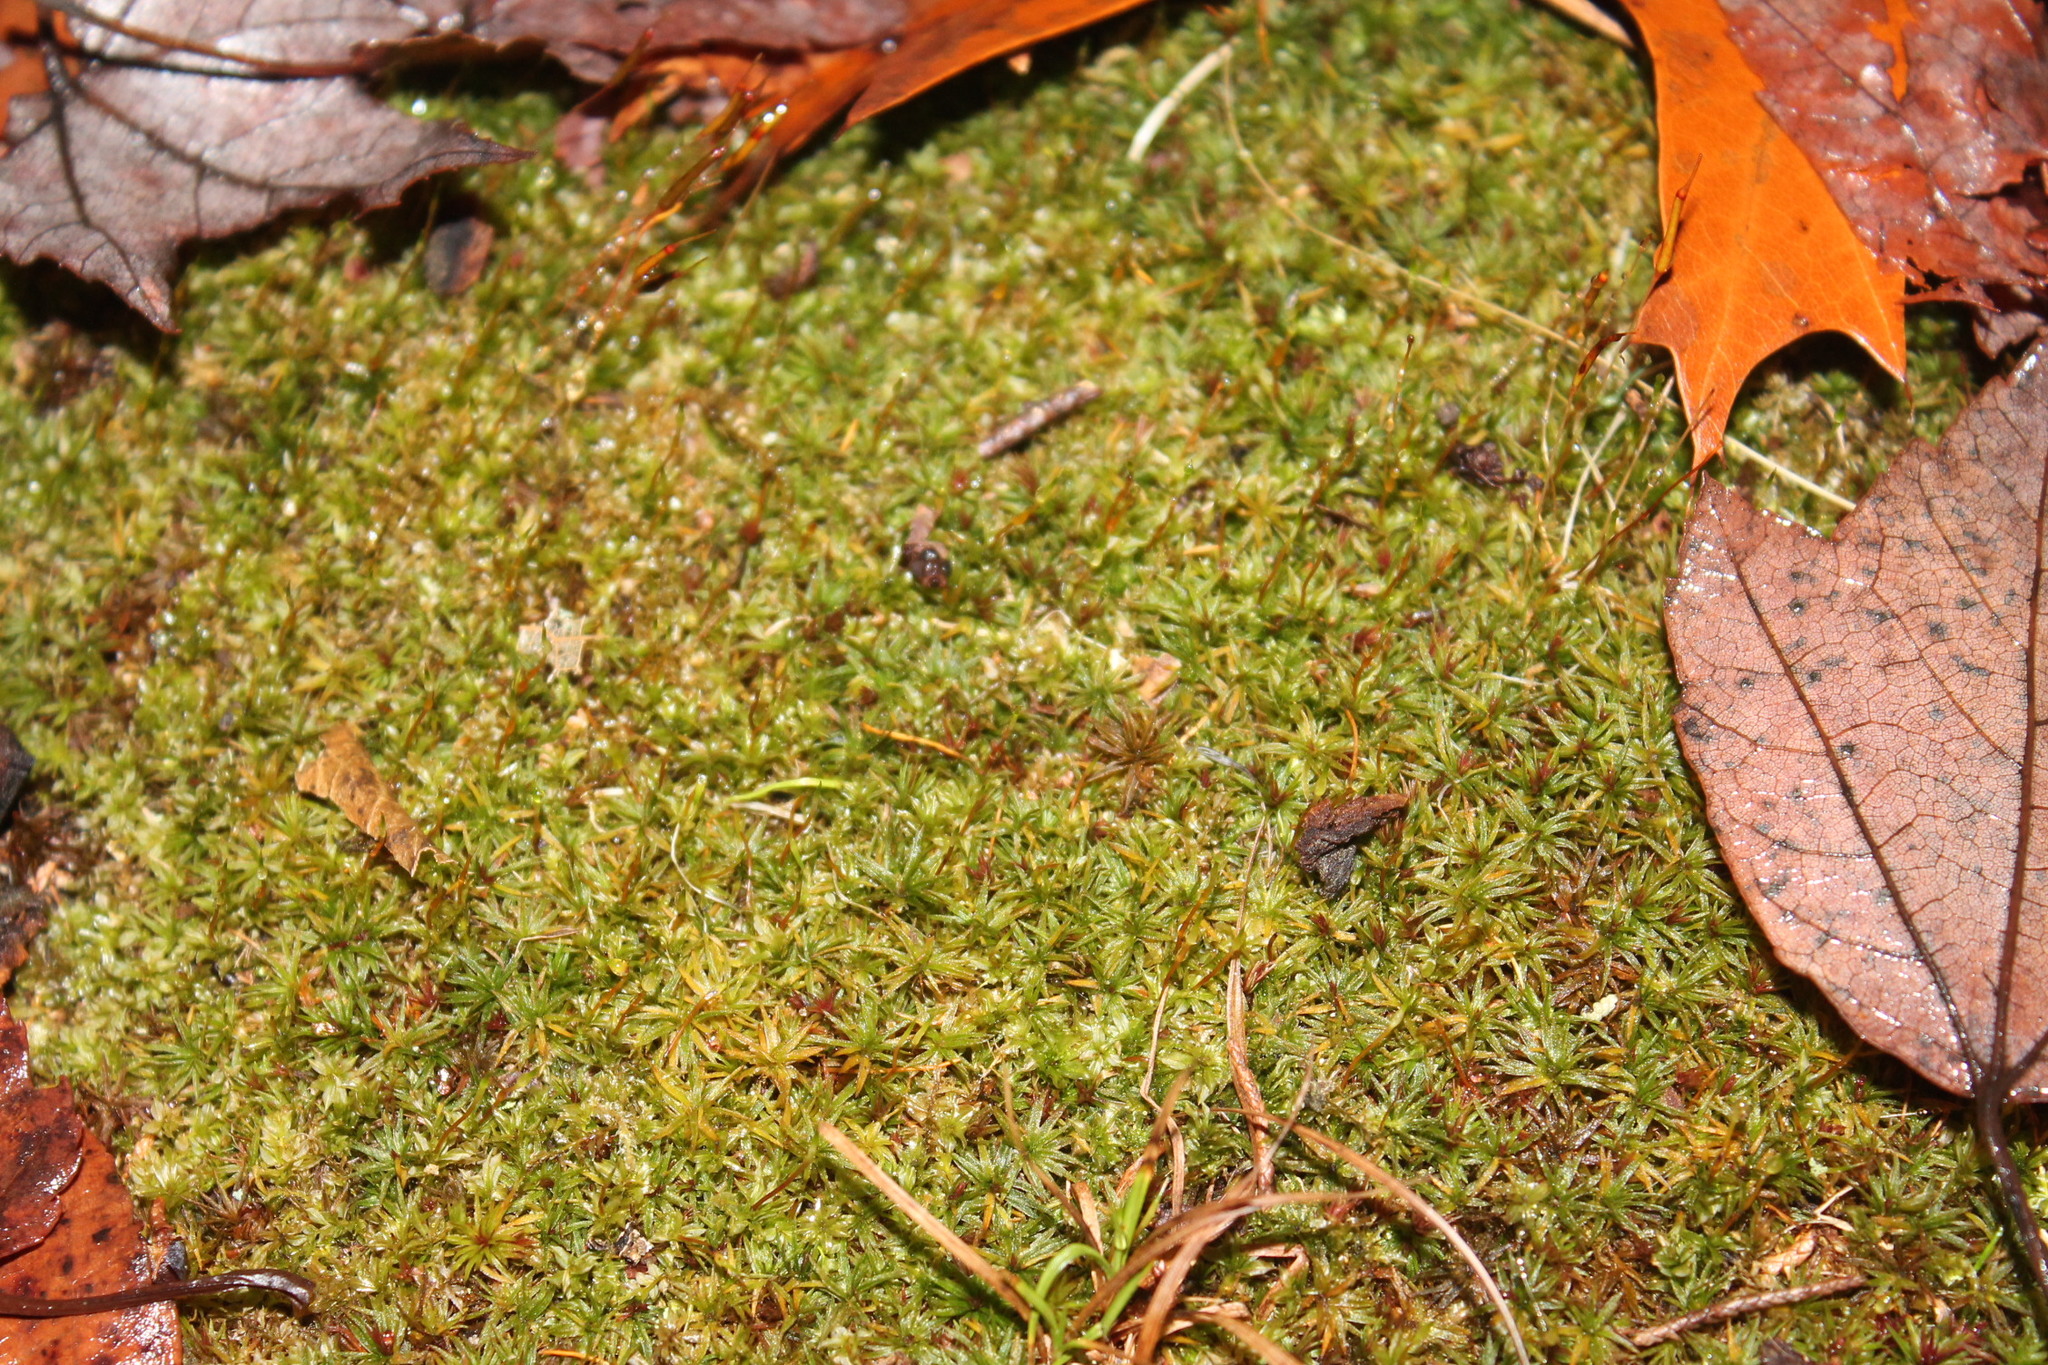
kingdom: Plantae
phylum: Bryophyta
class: Polytrichopsida
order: Polytrichales
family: Polytrichaceae
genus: Atrichum
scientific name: Atrichum angustatum
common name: Lesser smoothcap
